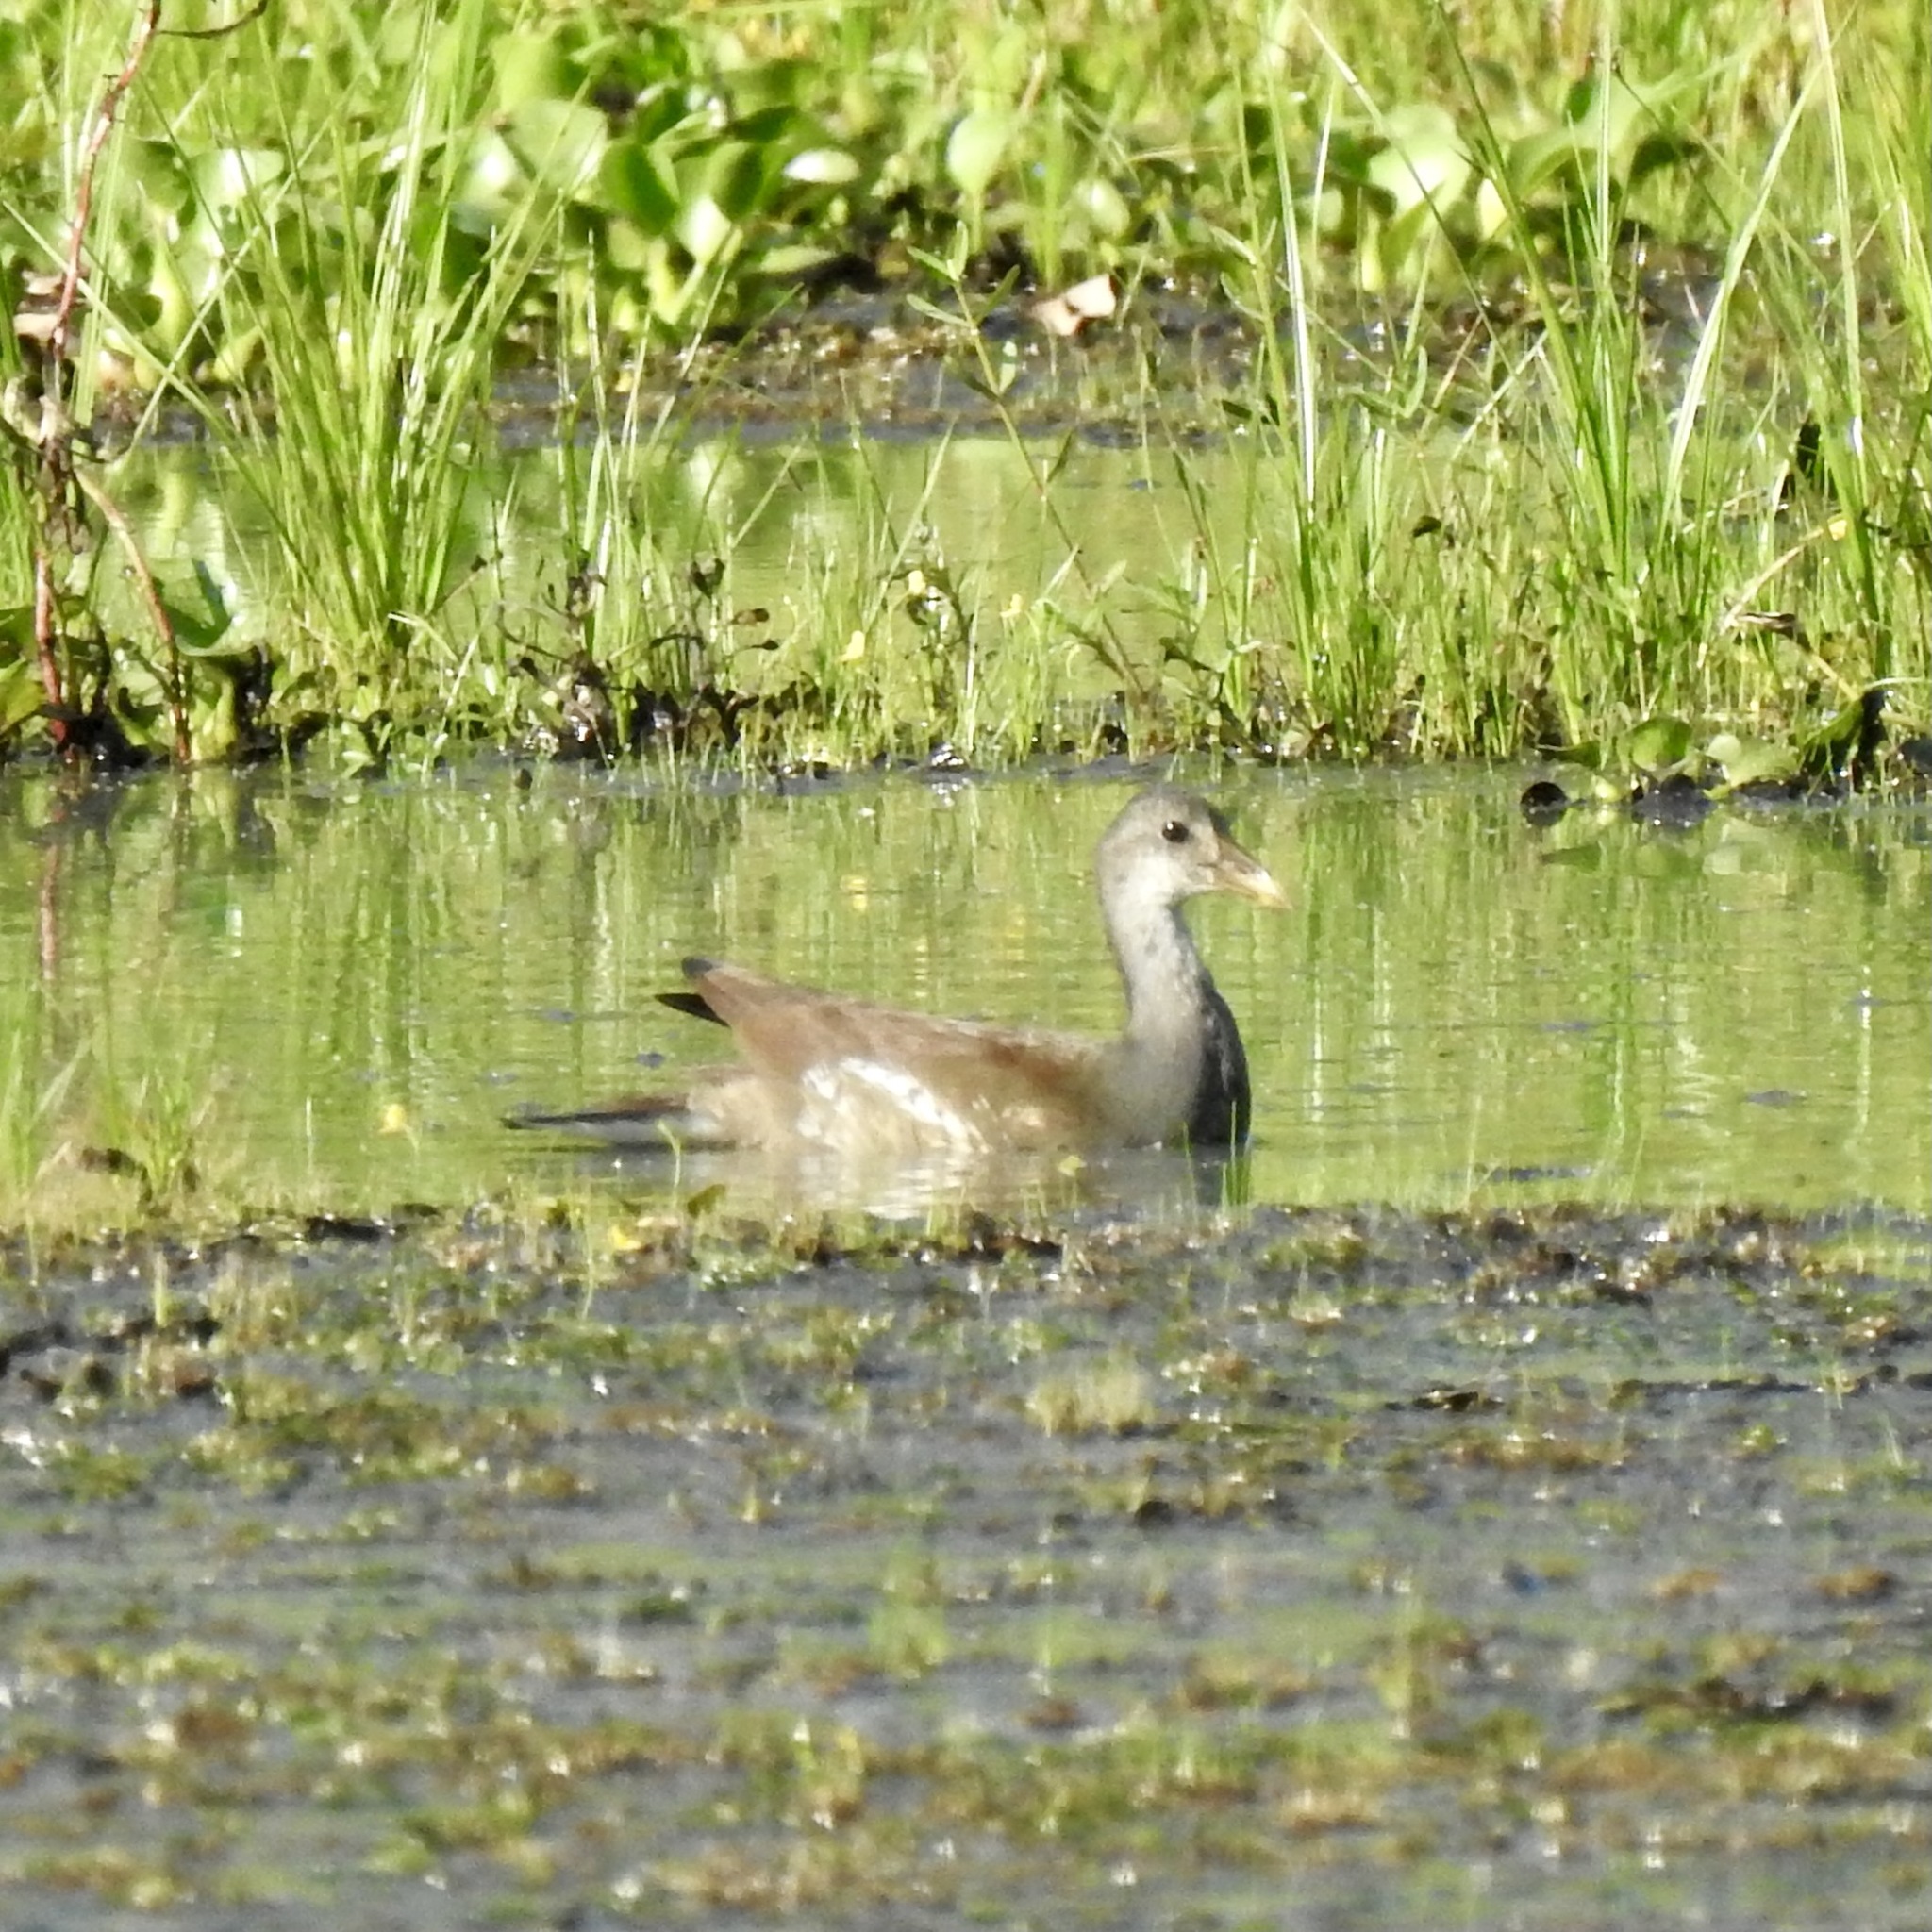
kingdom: Animalia
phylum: Chordata
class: Aves
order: Gruiformes
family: Rallidae
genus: Gallinula
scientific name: Gallinula chloropus
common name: Common moorhen
